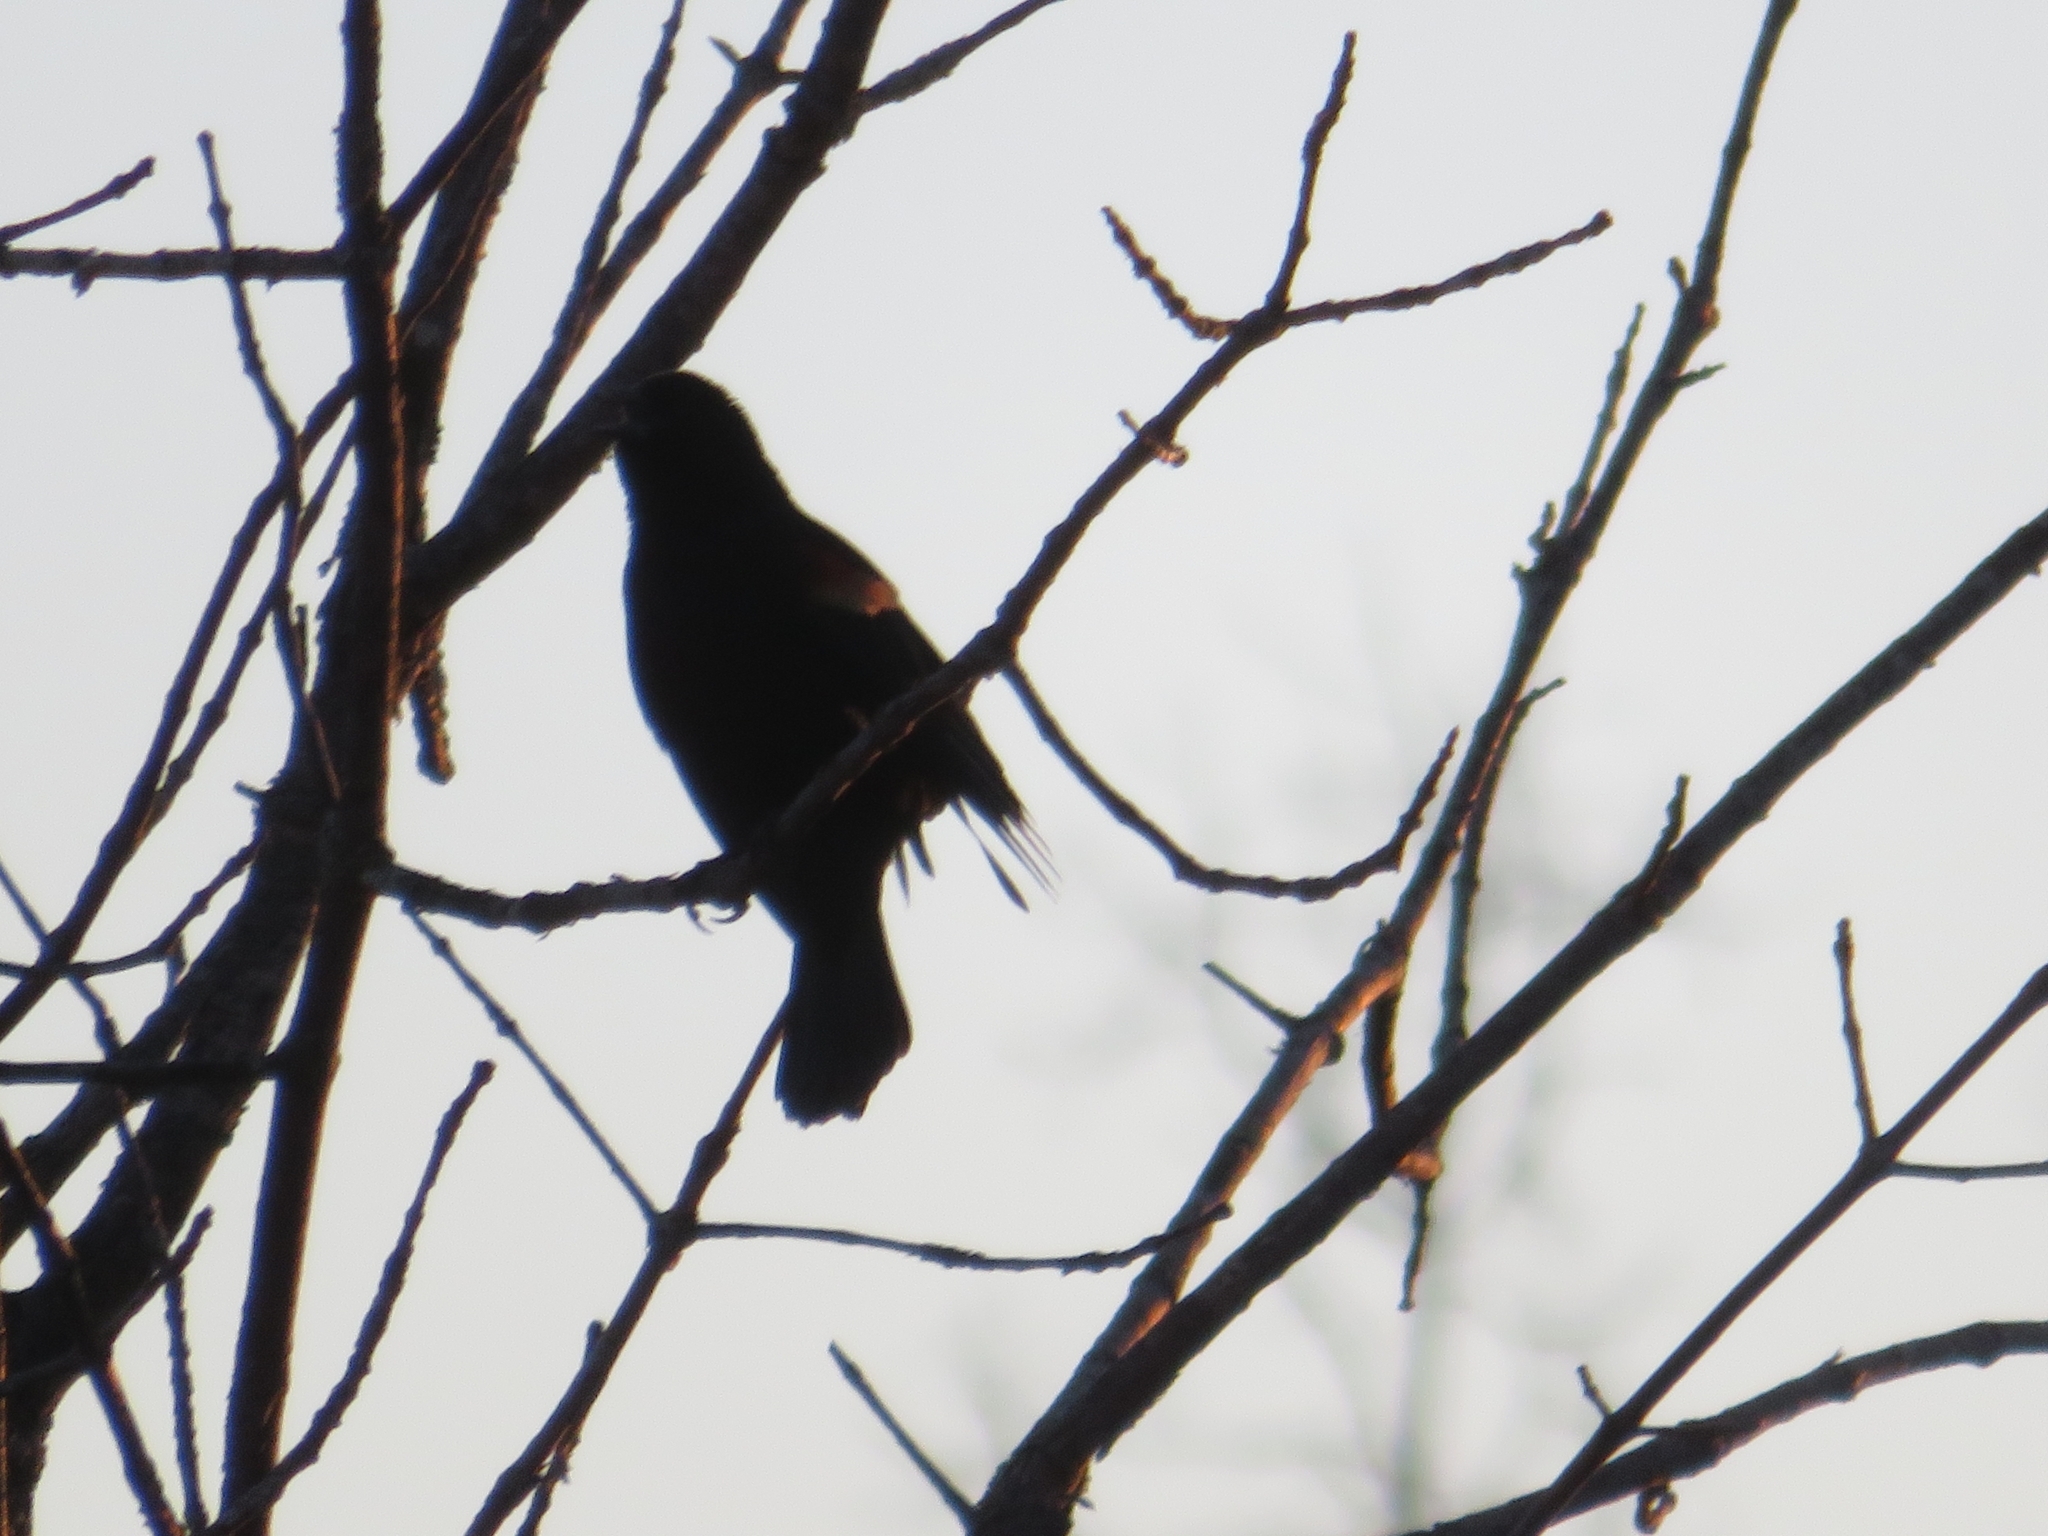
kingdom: Animalia
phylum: Chordata
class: Aves
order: Passeriformes
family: Icteridae
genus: Agelaius
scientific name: Agelaius phoeniceus
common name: Red-winged blackbird
